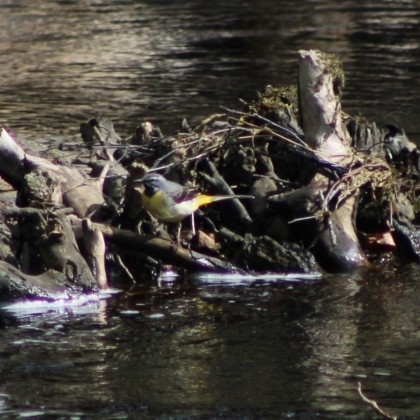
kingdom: Animalia
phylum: Chordata
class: Aves
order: Passeriformes
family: Motacillidae
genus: Motacilla
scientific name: Motacilla cinerea
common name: Grey wagtail
